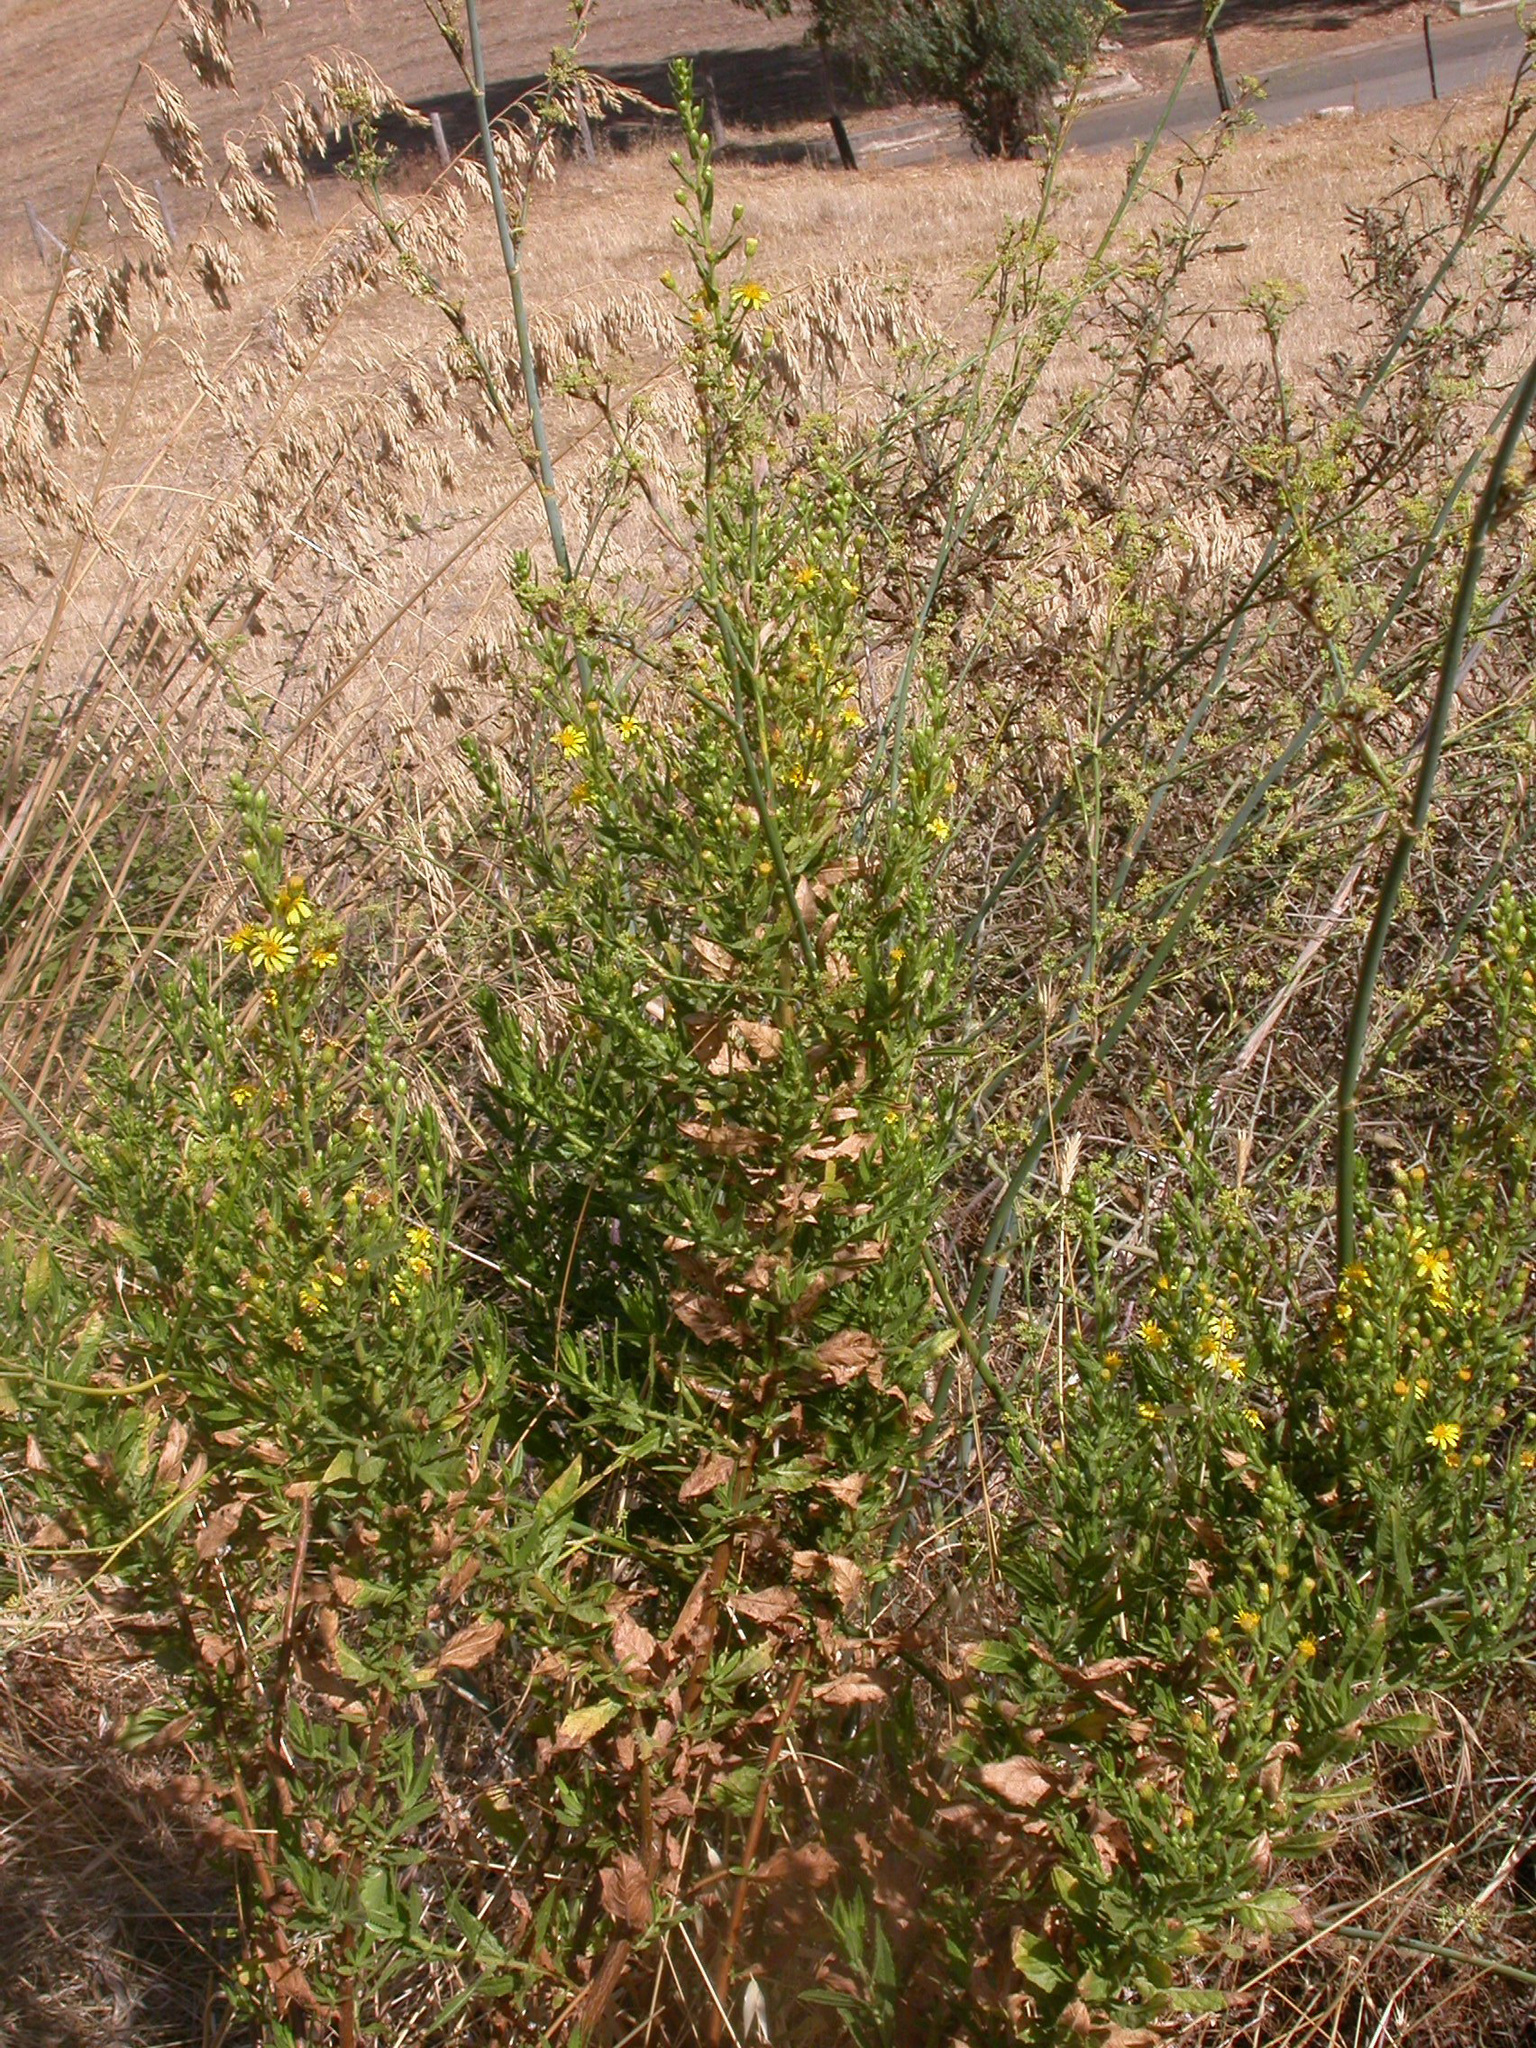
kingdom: Plantae
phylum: Tracheophyta
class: Magnoliopsida
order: Asterales
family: Asteraceae
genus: Dittrichia
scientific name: Dittrichia viscosa
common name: Woody fleabane
